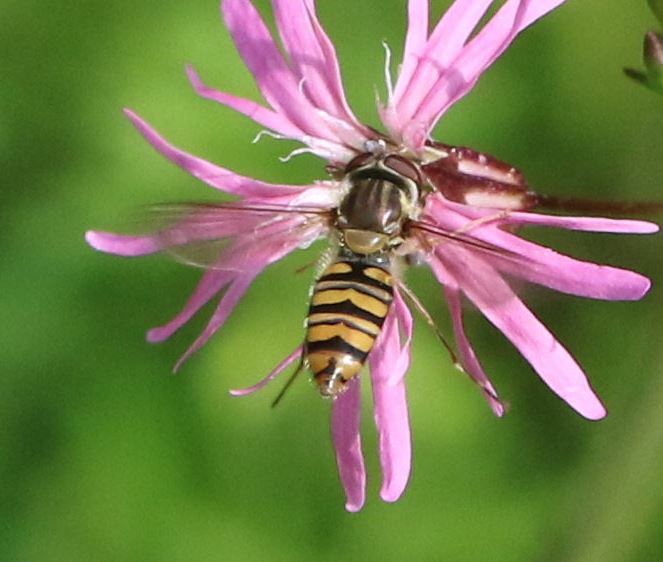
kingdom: Animalia
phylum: Arthropoda
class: Insecta
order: Diptera
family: Syrphidae
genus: Episyrphus
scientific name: Episyrphus balteatus
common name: Marmalade hoverfly
